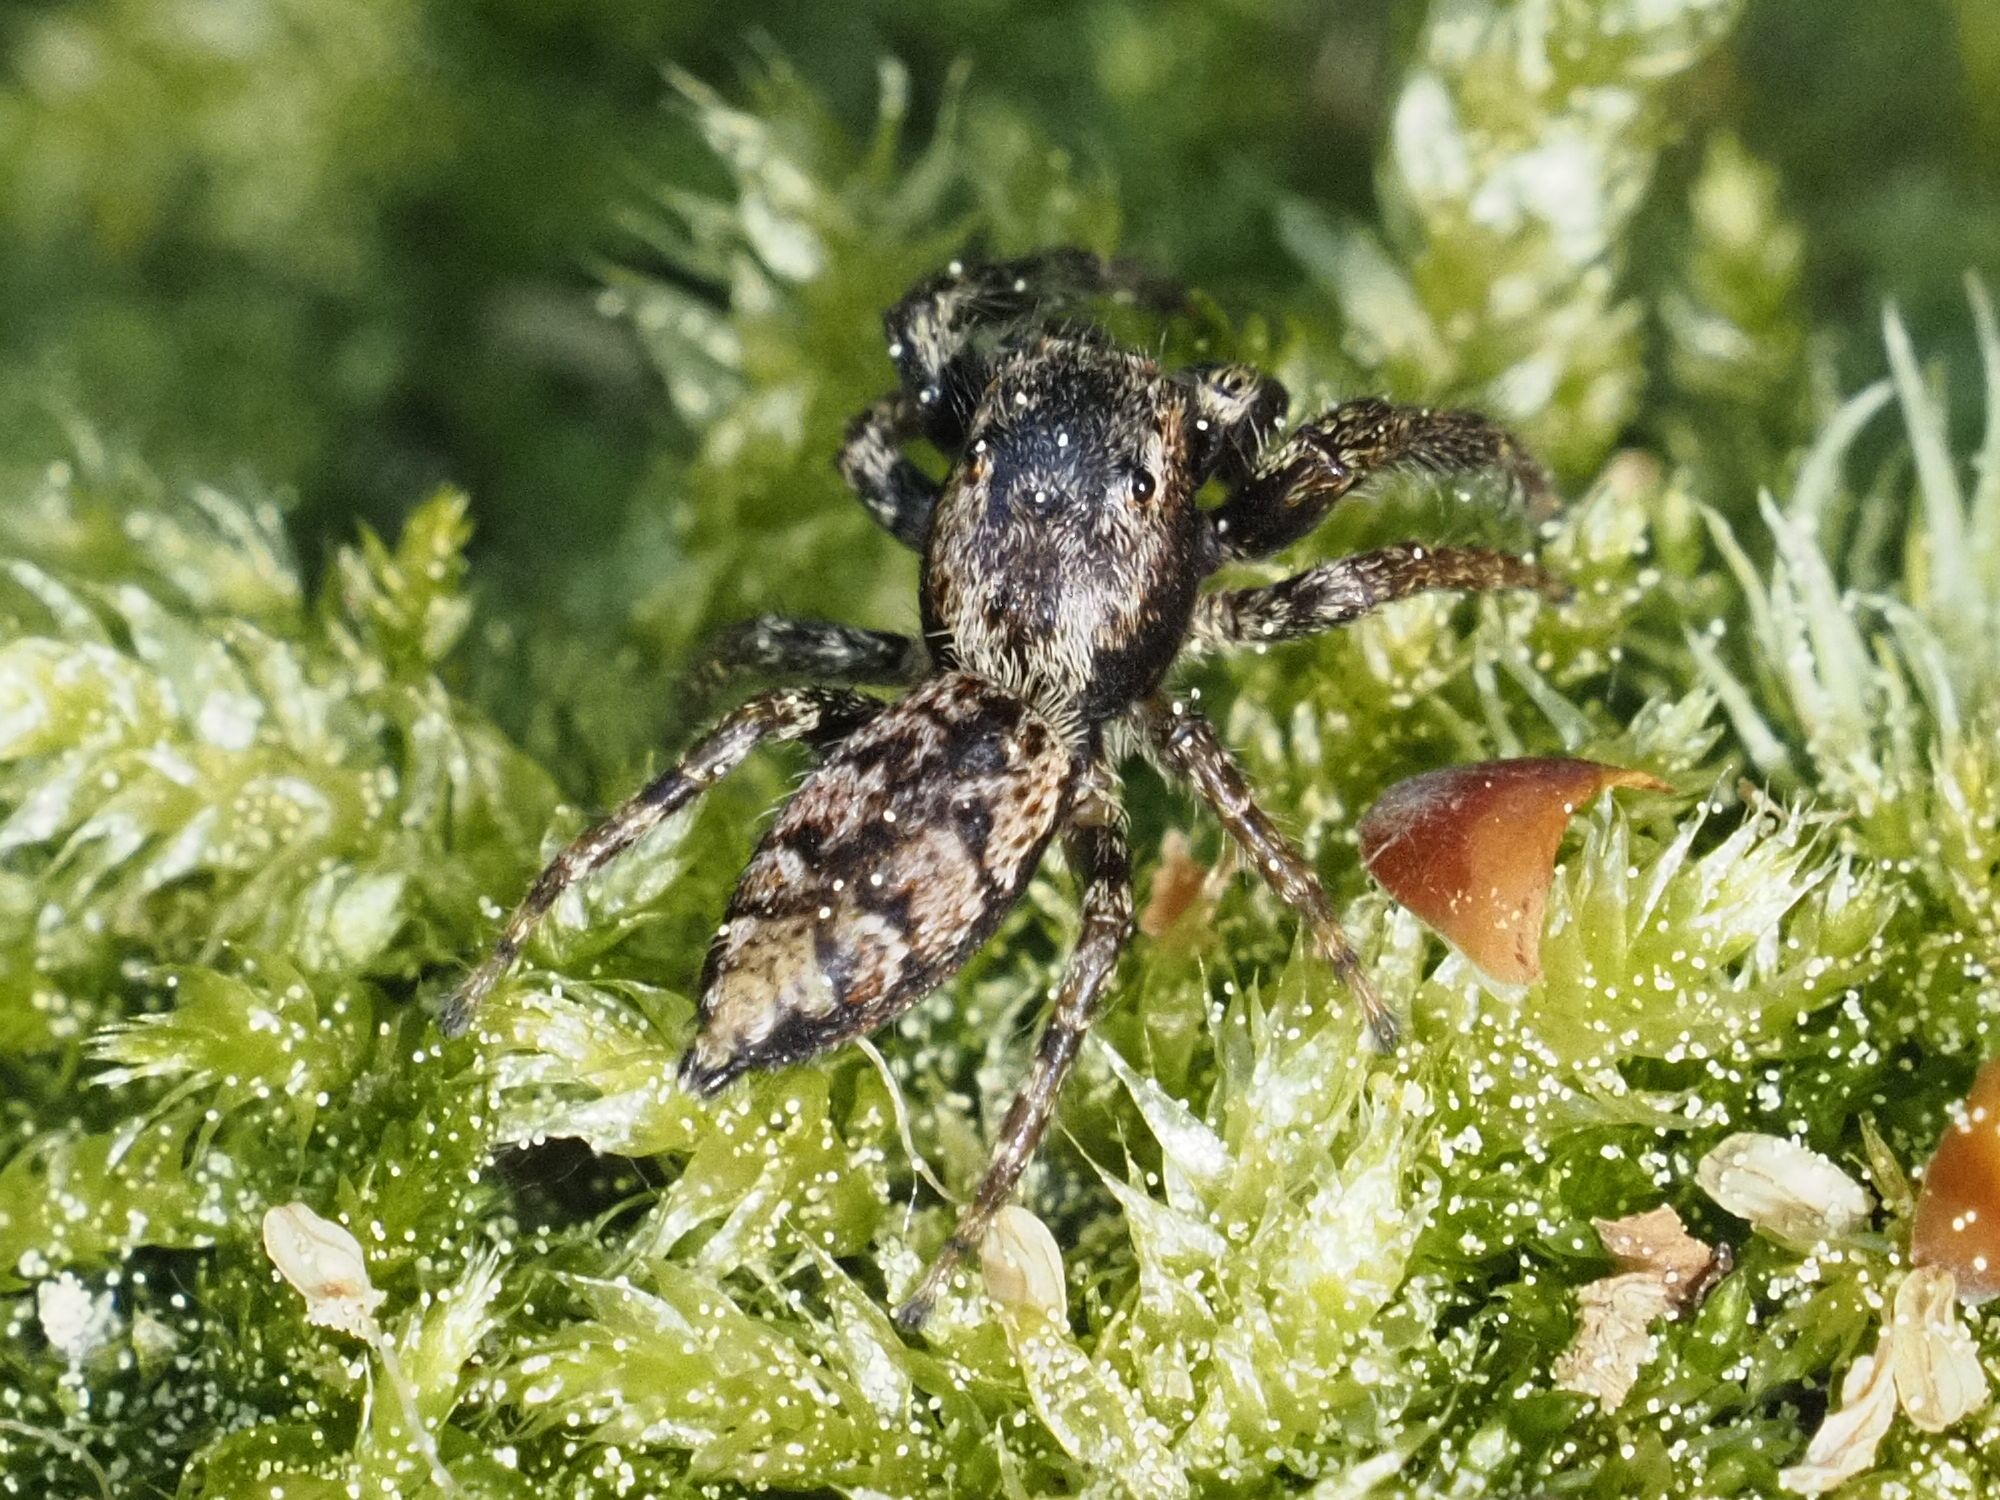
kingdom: Animalia
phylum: Arthropoda
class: Arachnida
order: Araneae
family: Salticidae
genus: Marpissa
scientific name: Marpissa muscosa
